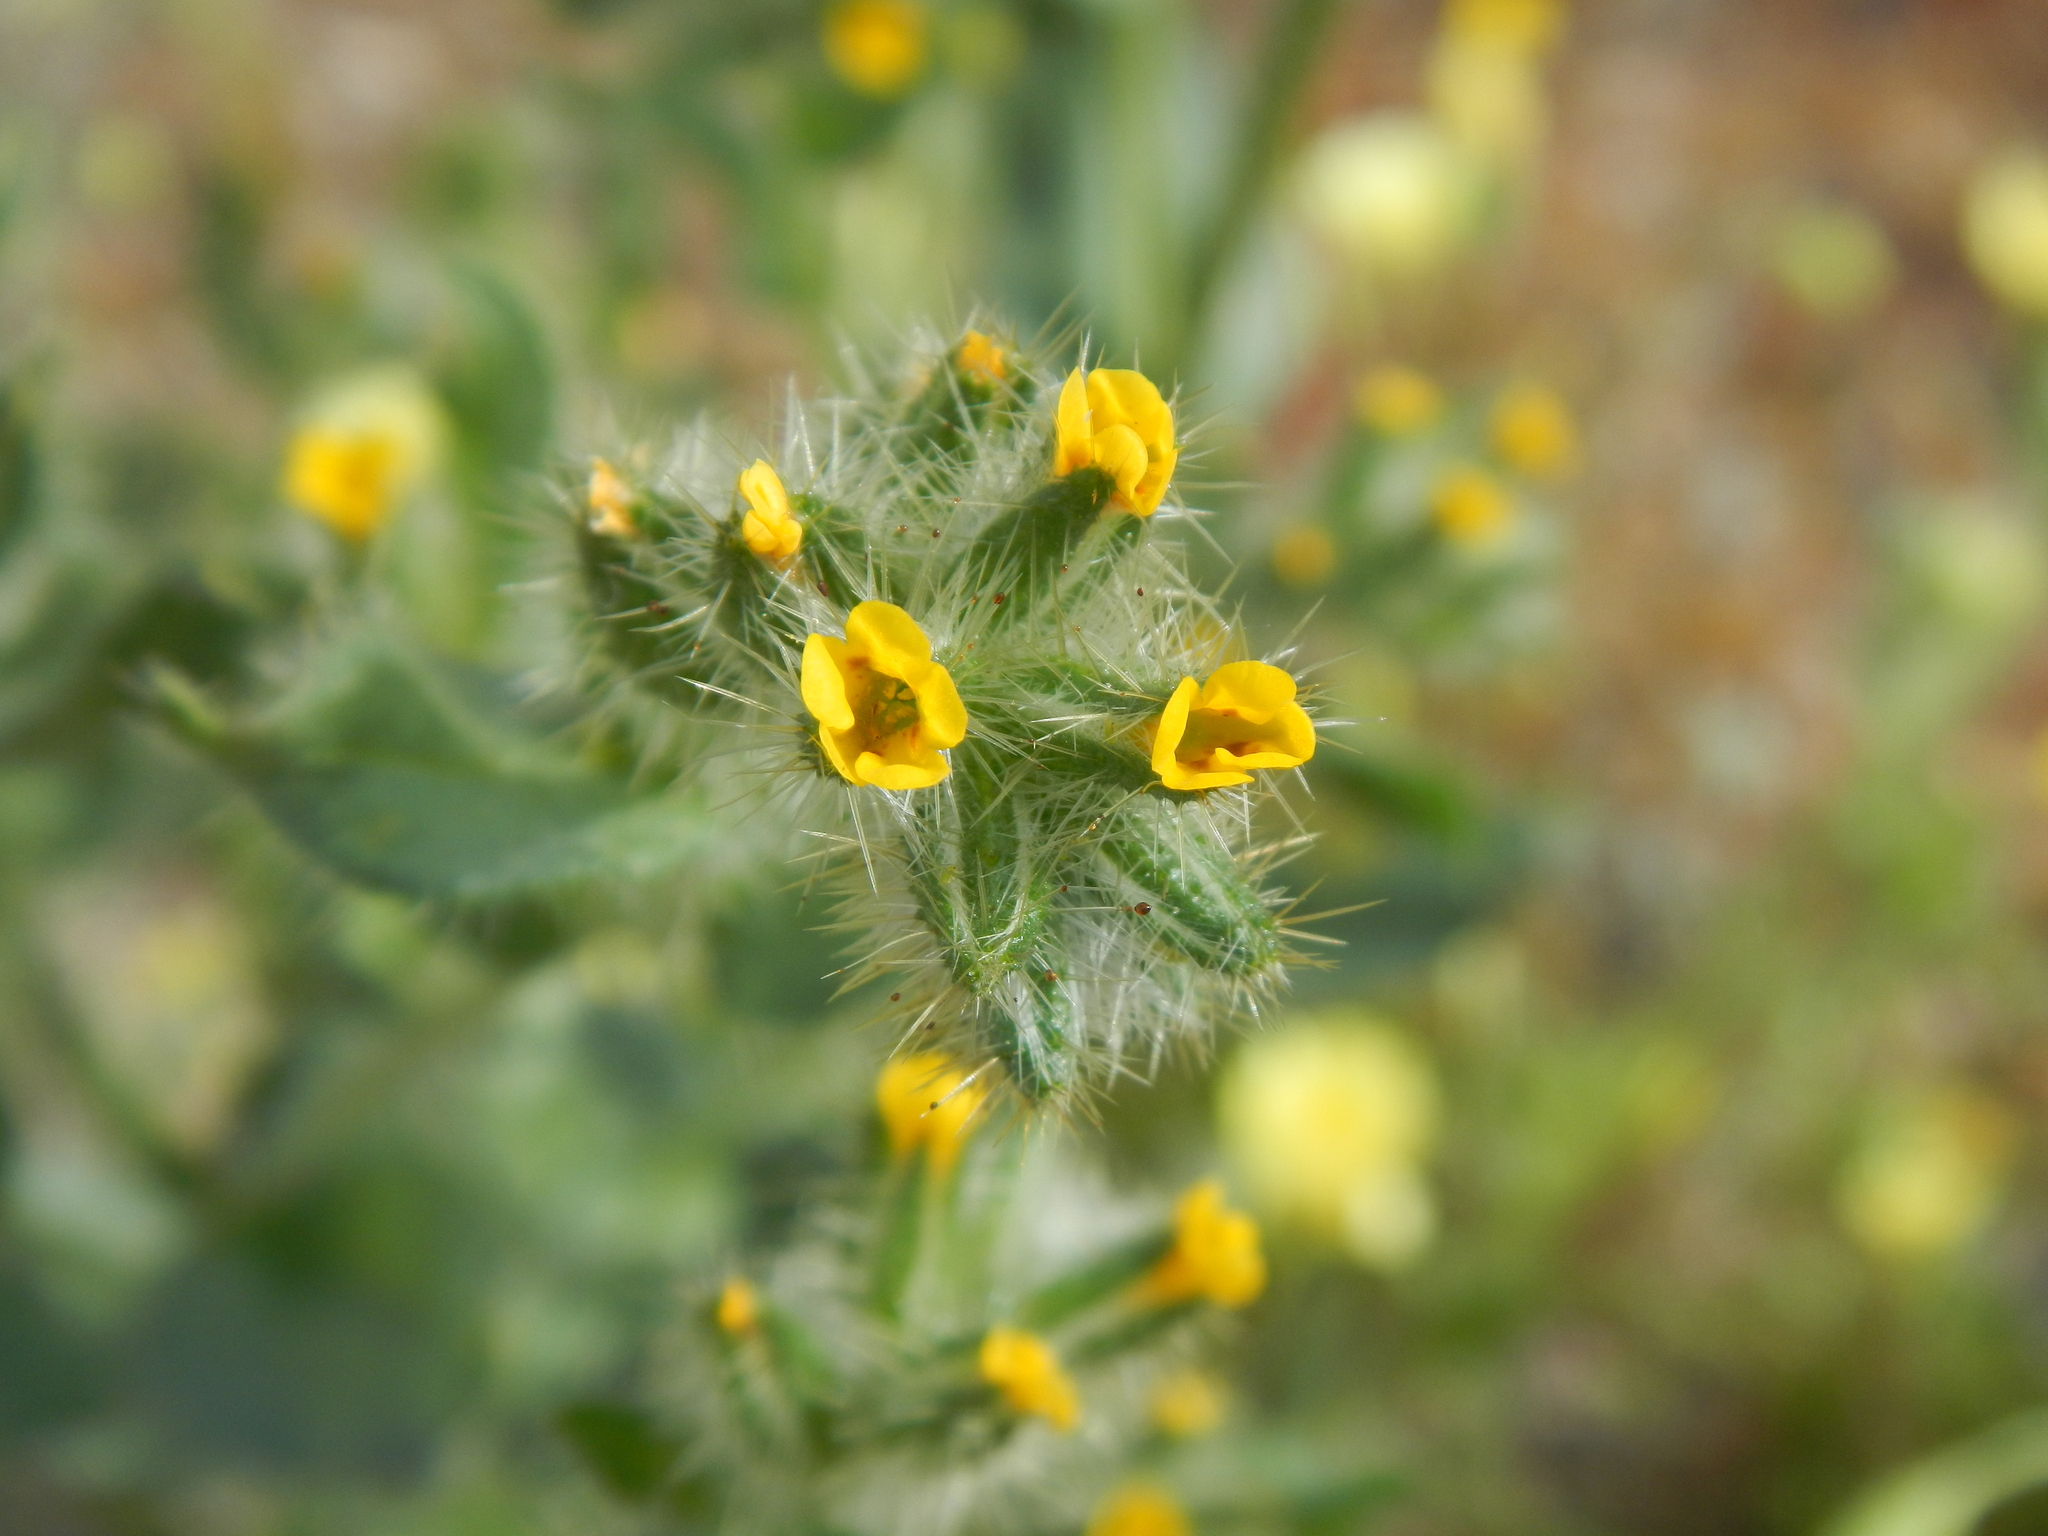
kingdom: Plantae
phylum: Tracheophyta
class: Magnoliopsida
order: Boraginales
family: Boraginaceae
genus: Amsinckia
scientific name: Amsinckia tessellata
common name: Tessellate fiddleneck
